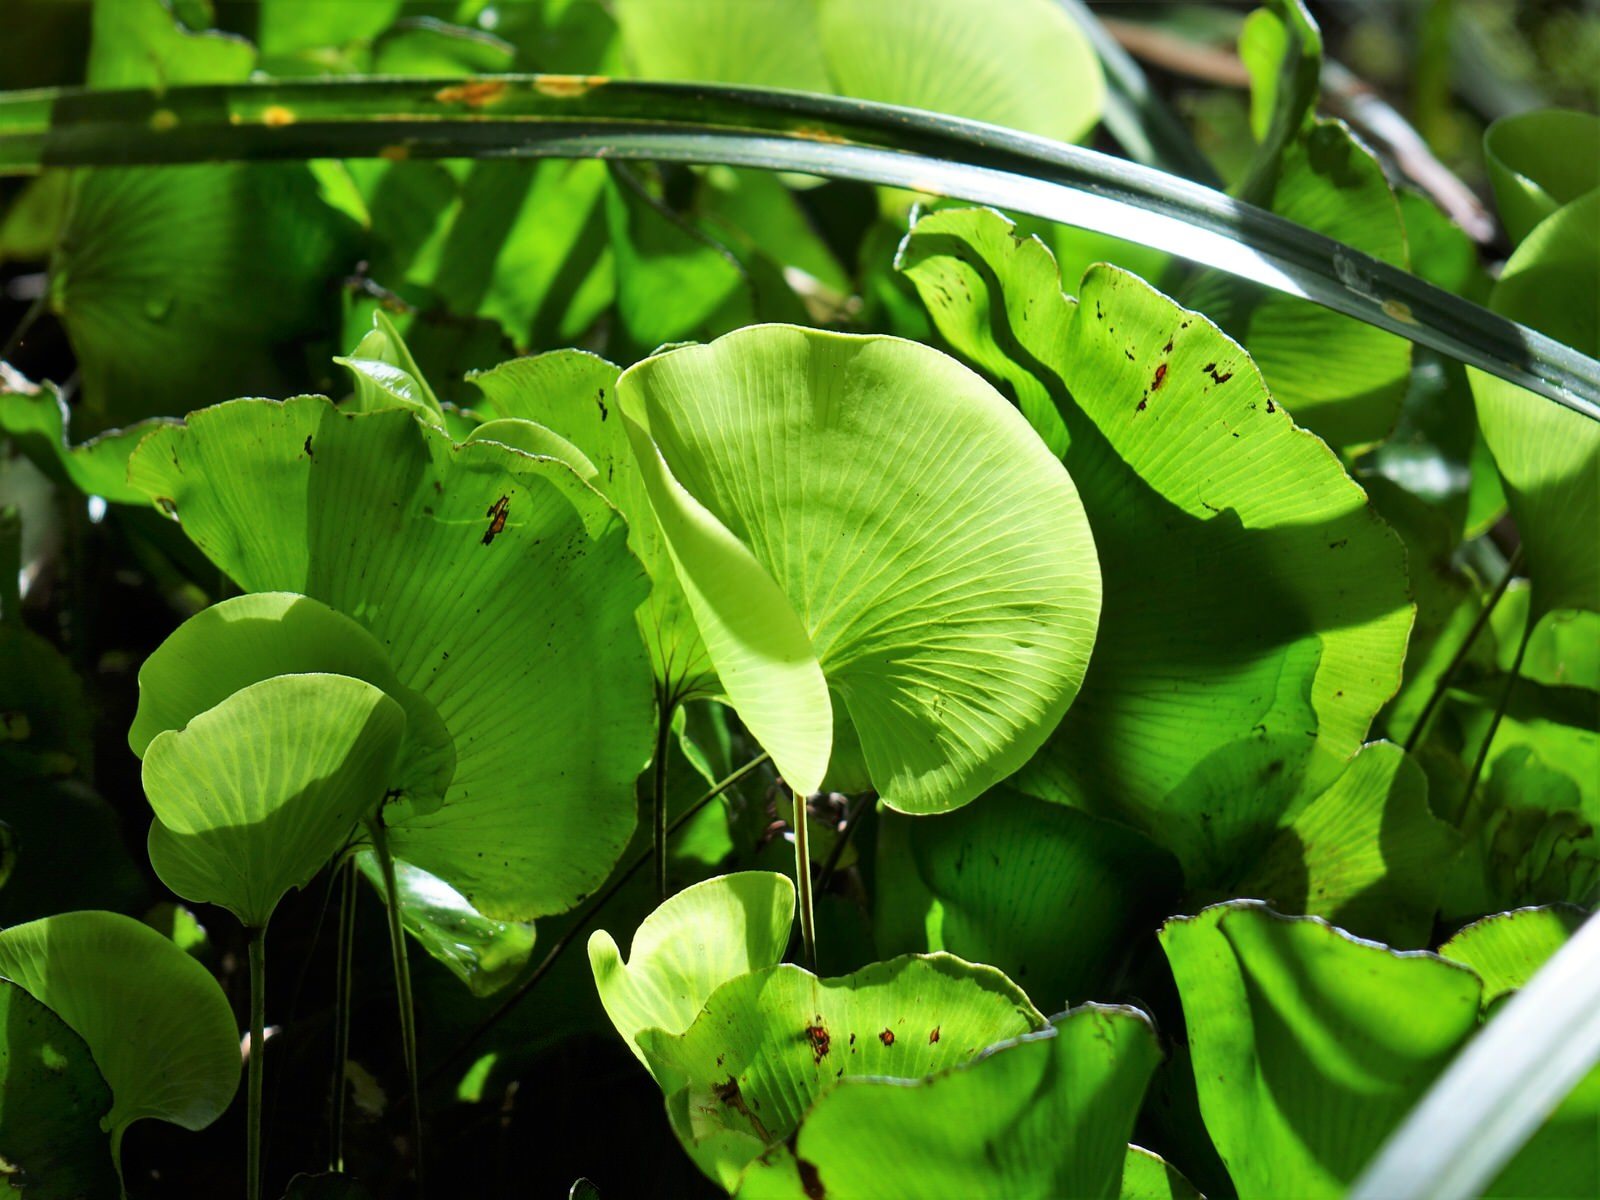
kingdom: Plantae
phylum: Tracheophyta
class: Polypodiopsida
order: Hymenophyllales
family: Hymenophyllaceae
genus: Hymenophyllum
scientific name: Hymenophyllum nephrophyllum
